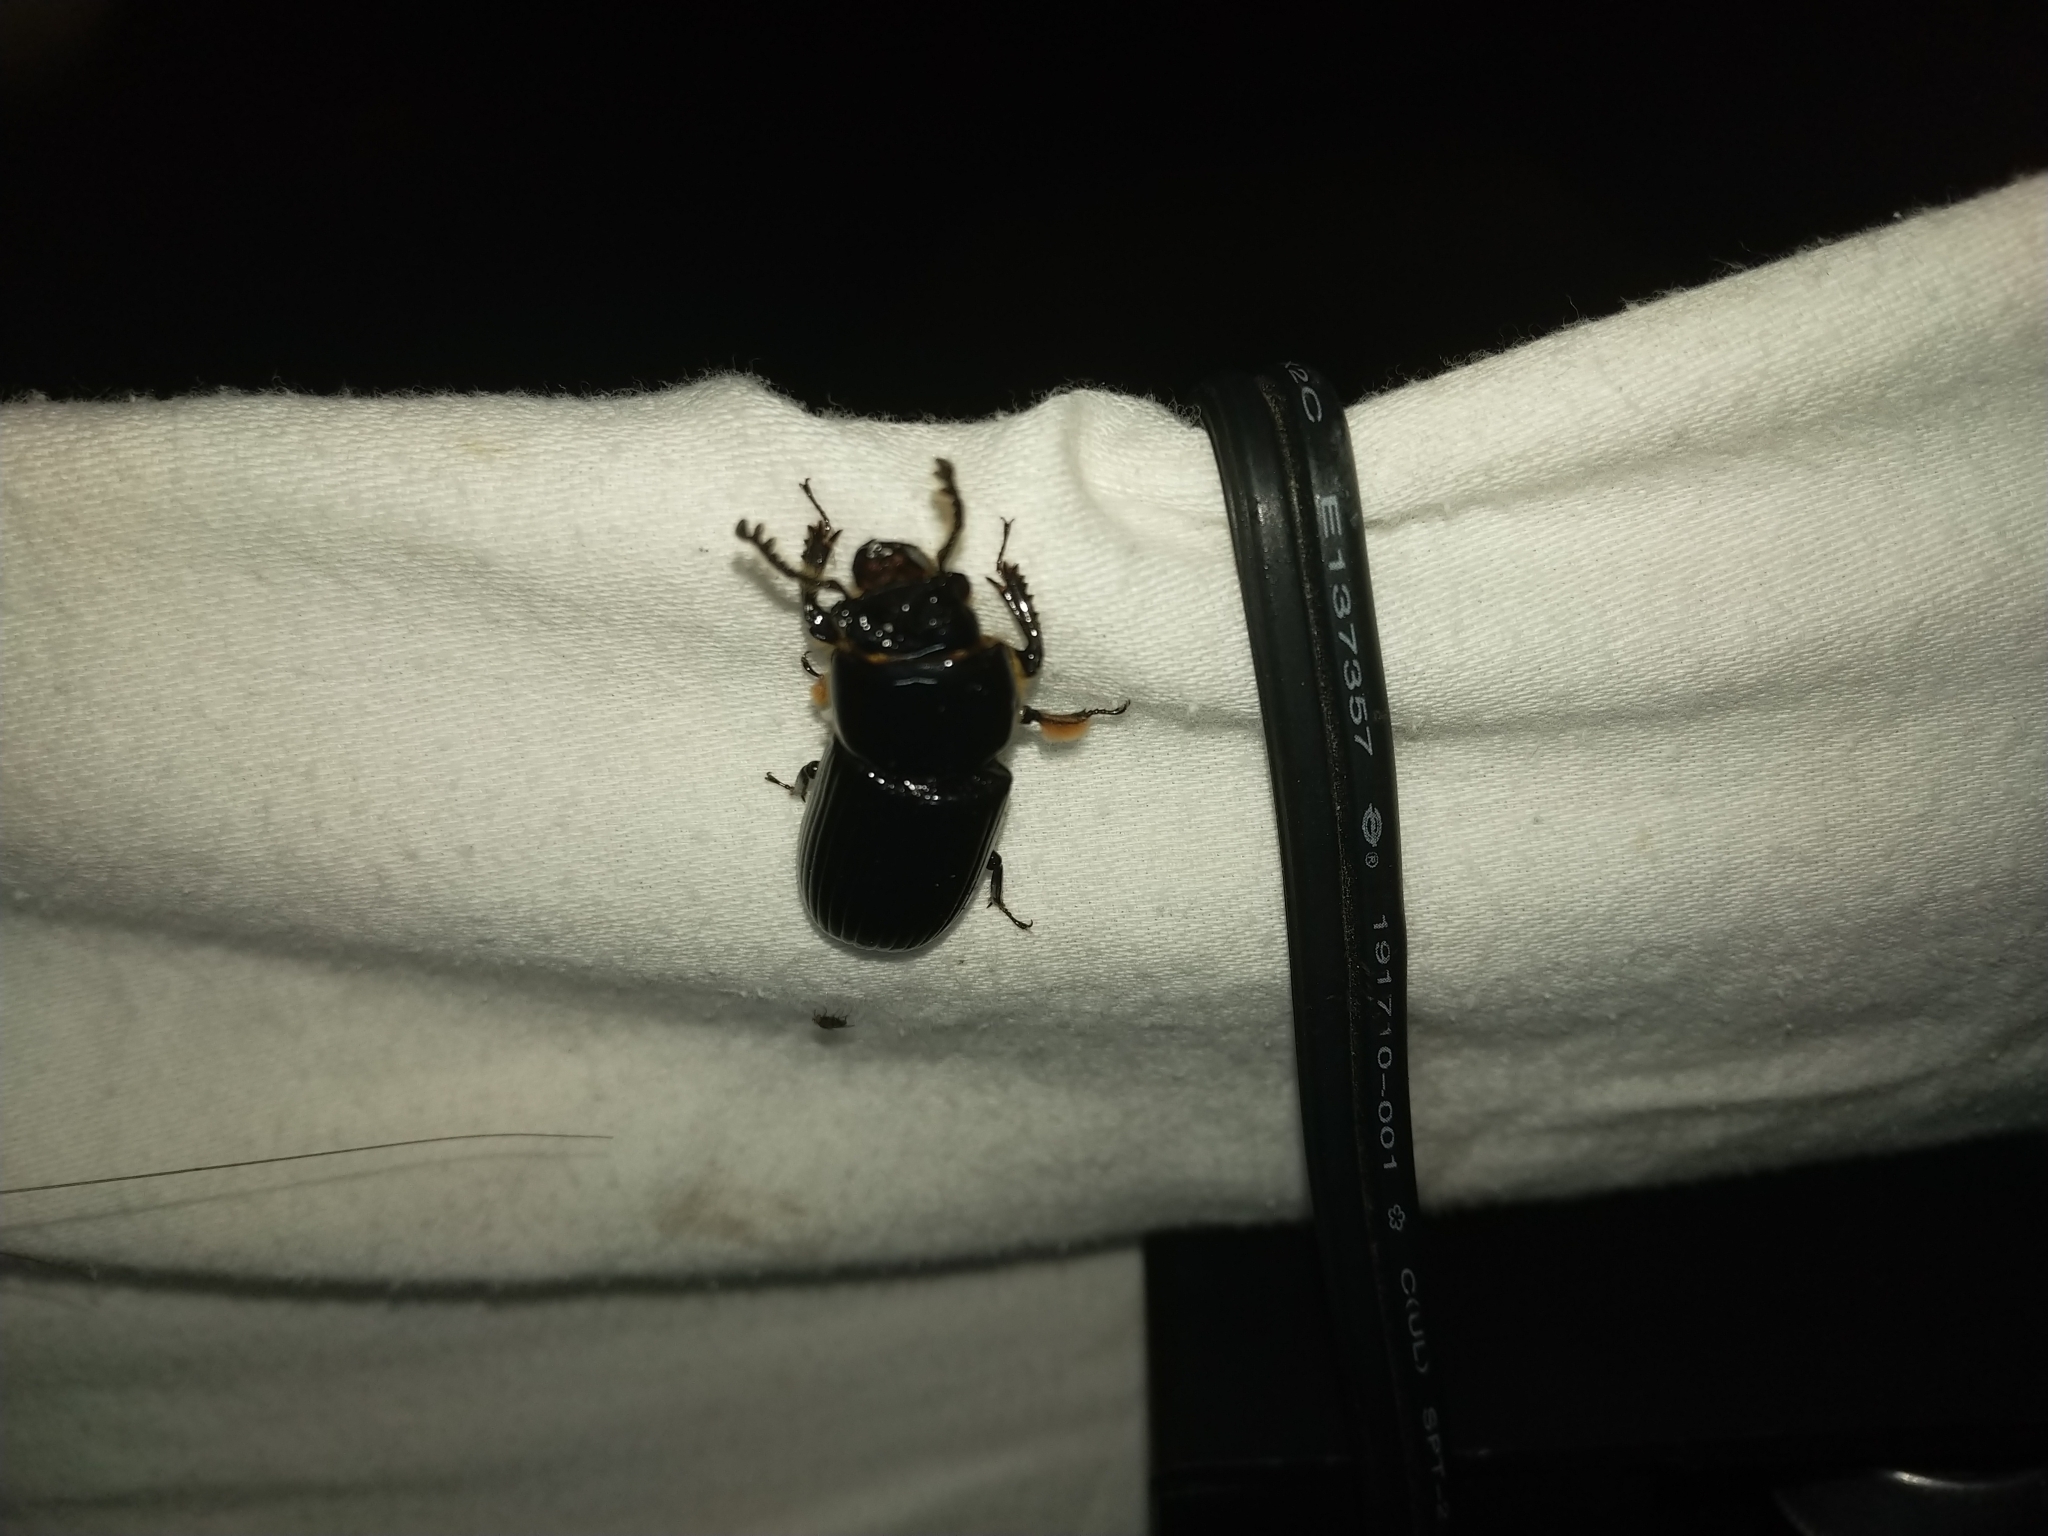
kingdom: Animalia
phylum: Arthropoda
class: Insecta
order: Coleoptera
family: Passalidae
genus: Odontotaenius
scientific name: Odontotaenius disjunctus
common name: Patent leather beetle
